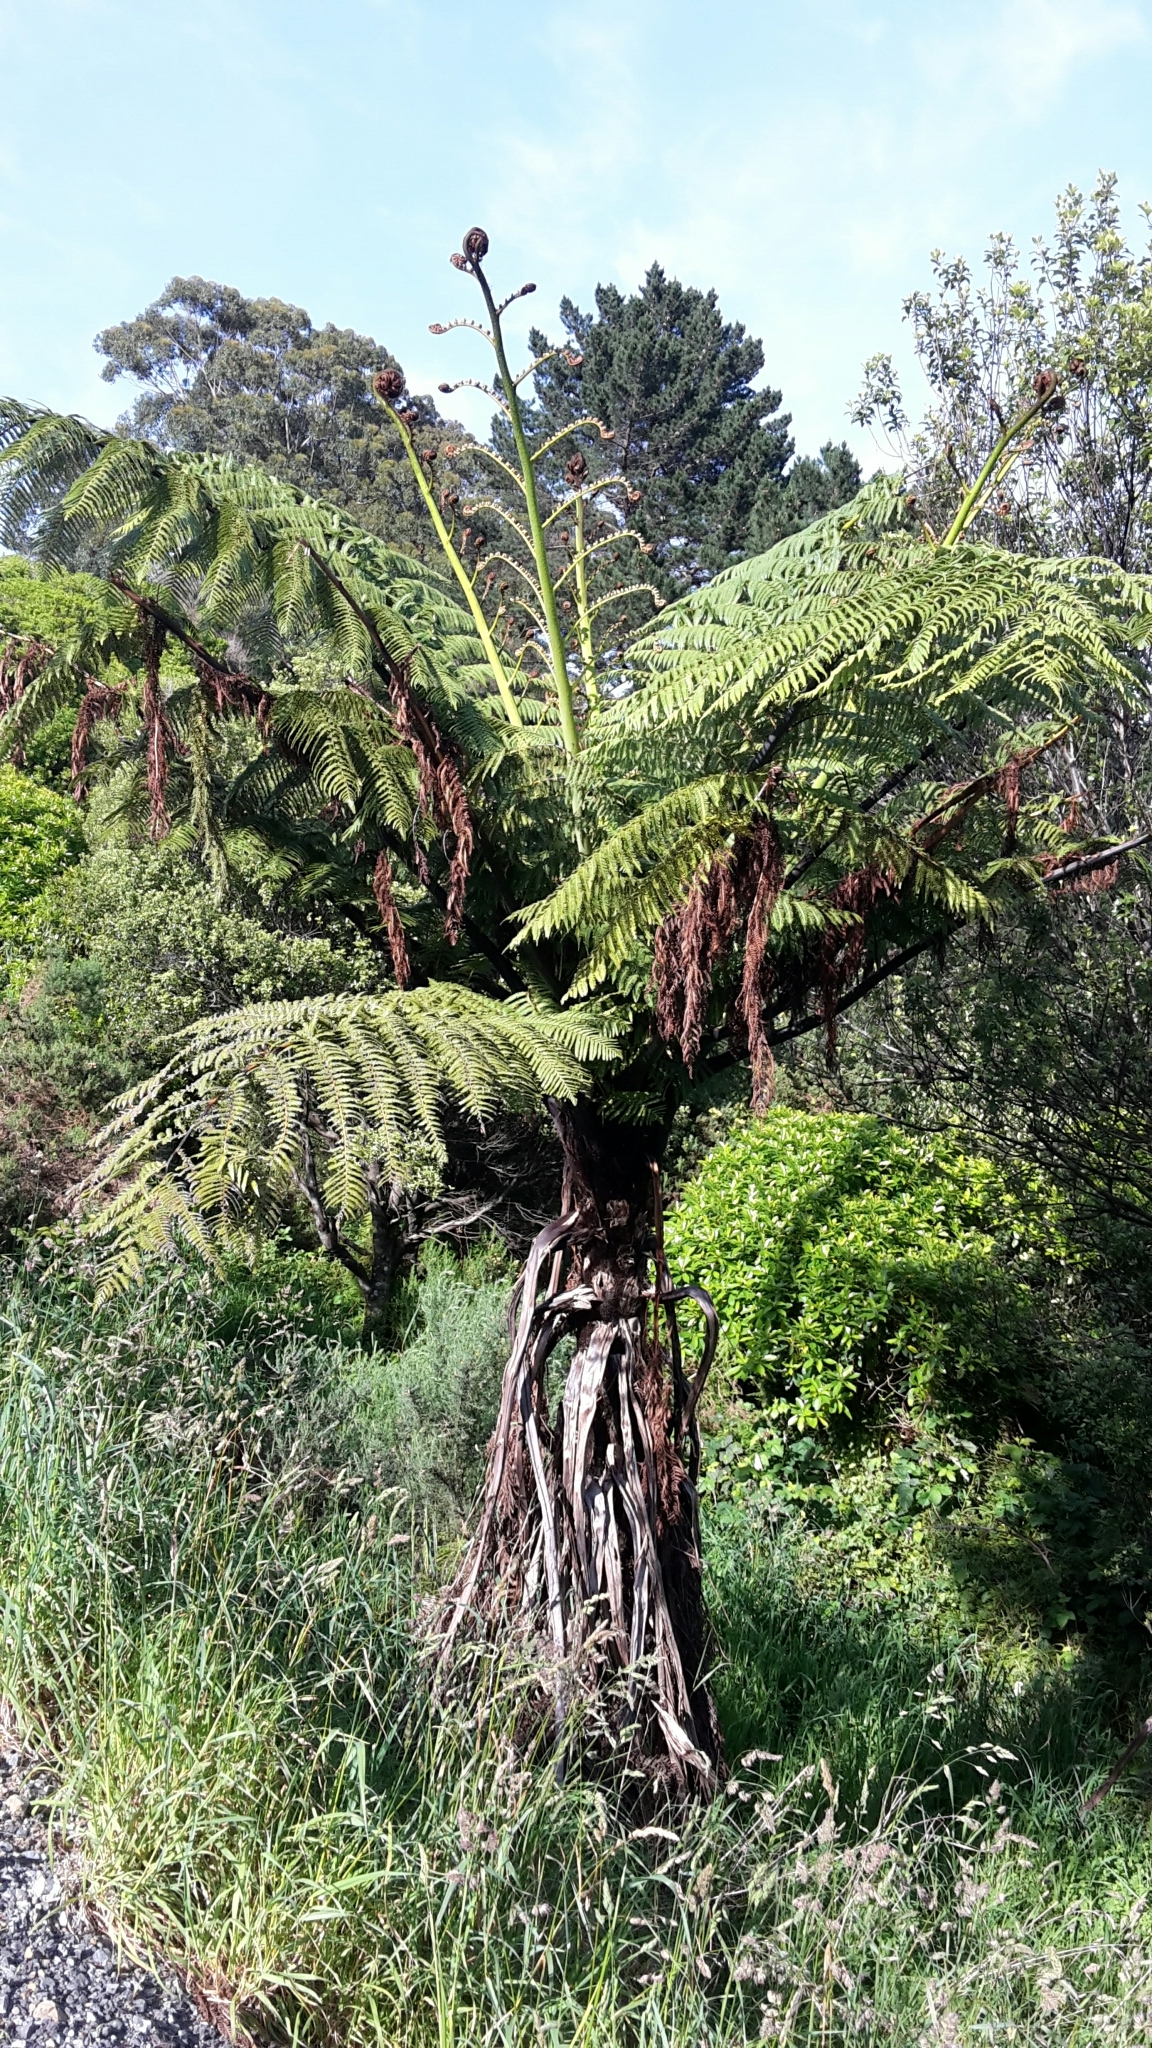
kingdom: Plantae
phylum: Tracheophyta
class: Polypodiopsida
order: Cyatheales
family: Cyatheaceae
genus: Sphaeropteris
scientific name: Sphaeropteris medullaris
